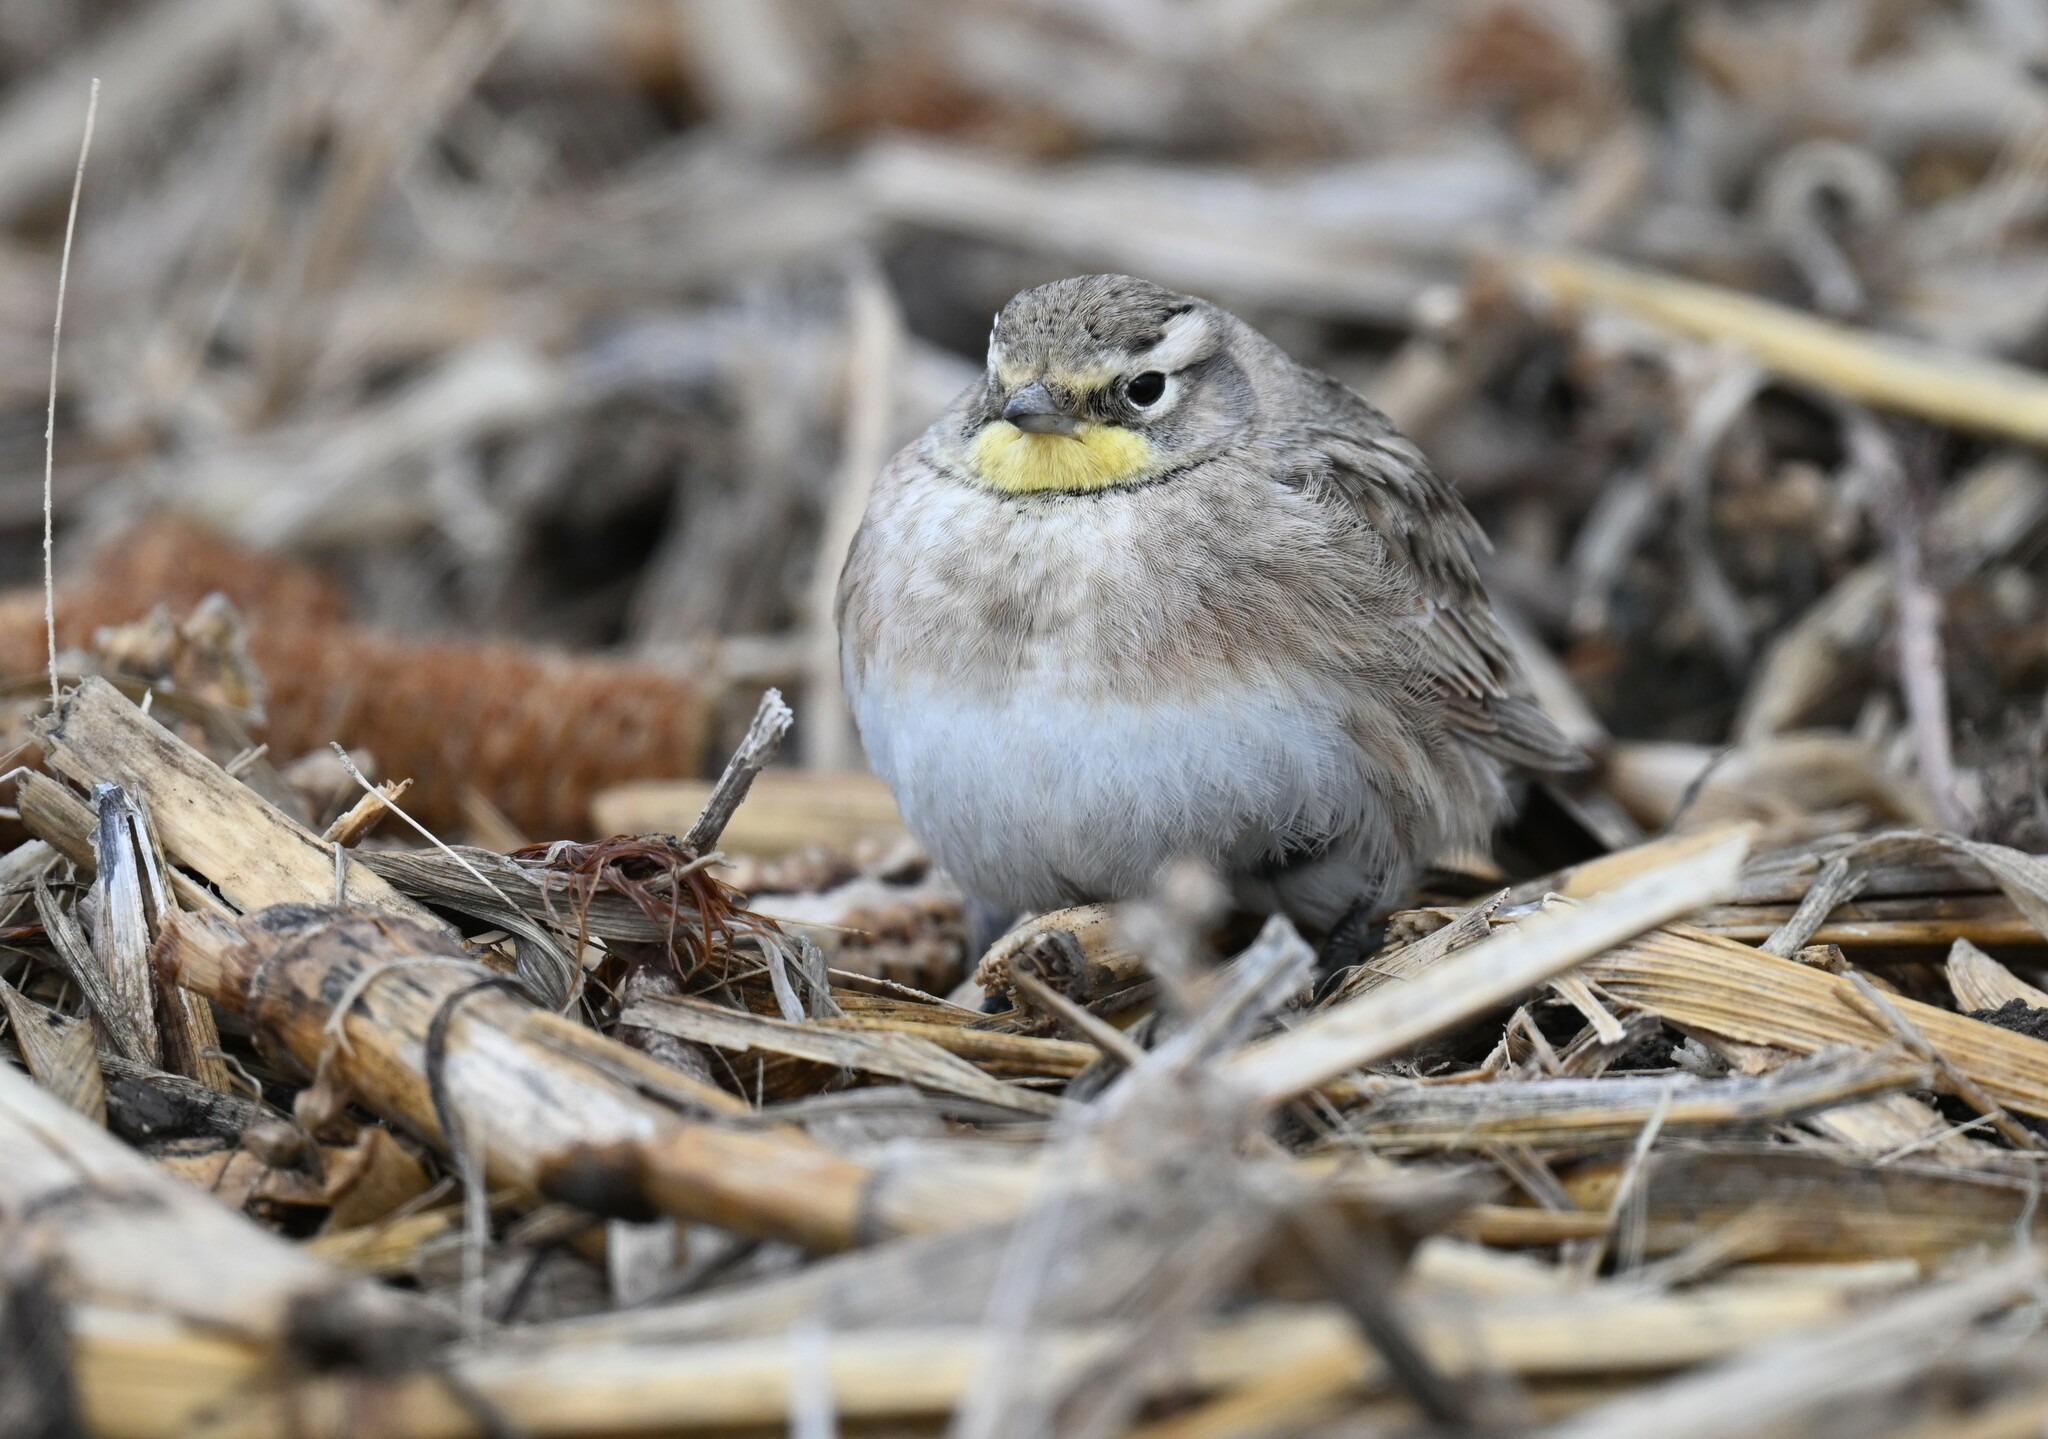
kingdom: Animalia
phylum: Chordata
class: Aves
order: Passeriformes
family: Alaudidae
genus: Eremophila
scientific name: Eremophila alpestris
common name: Horned lark
